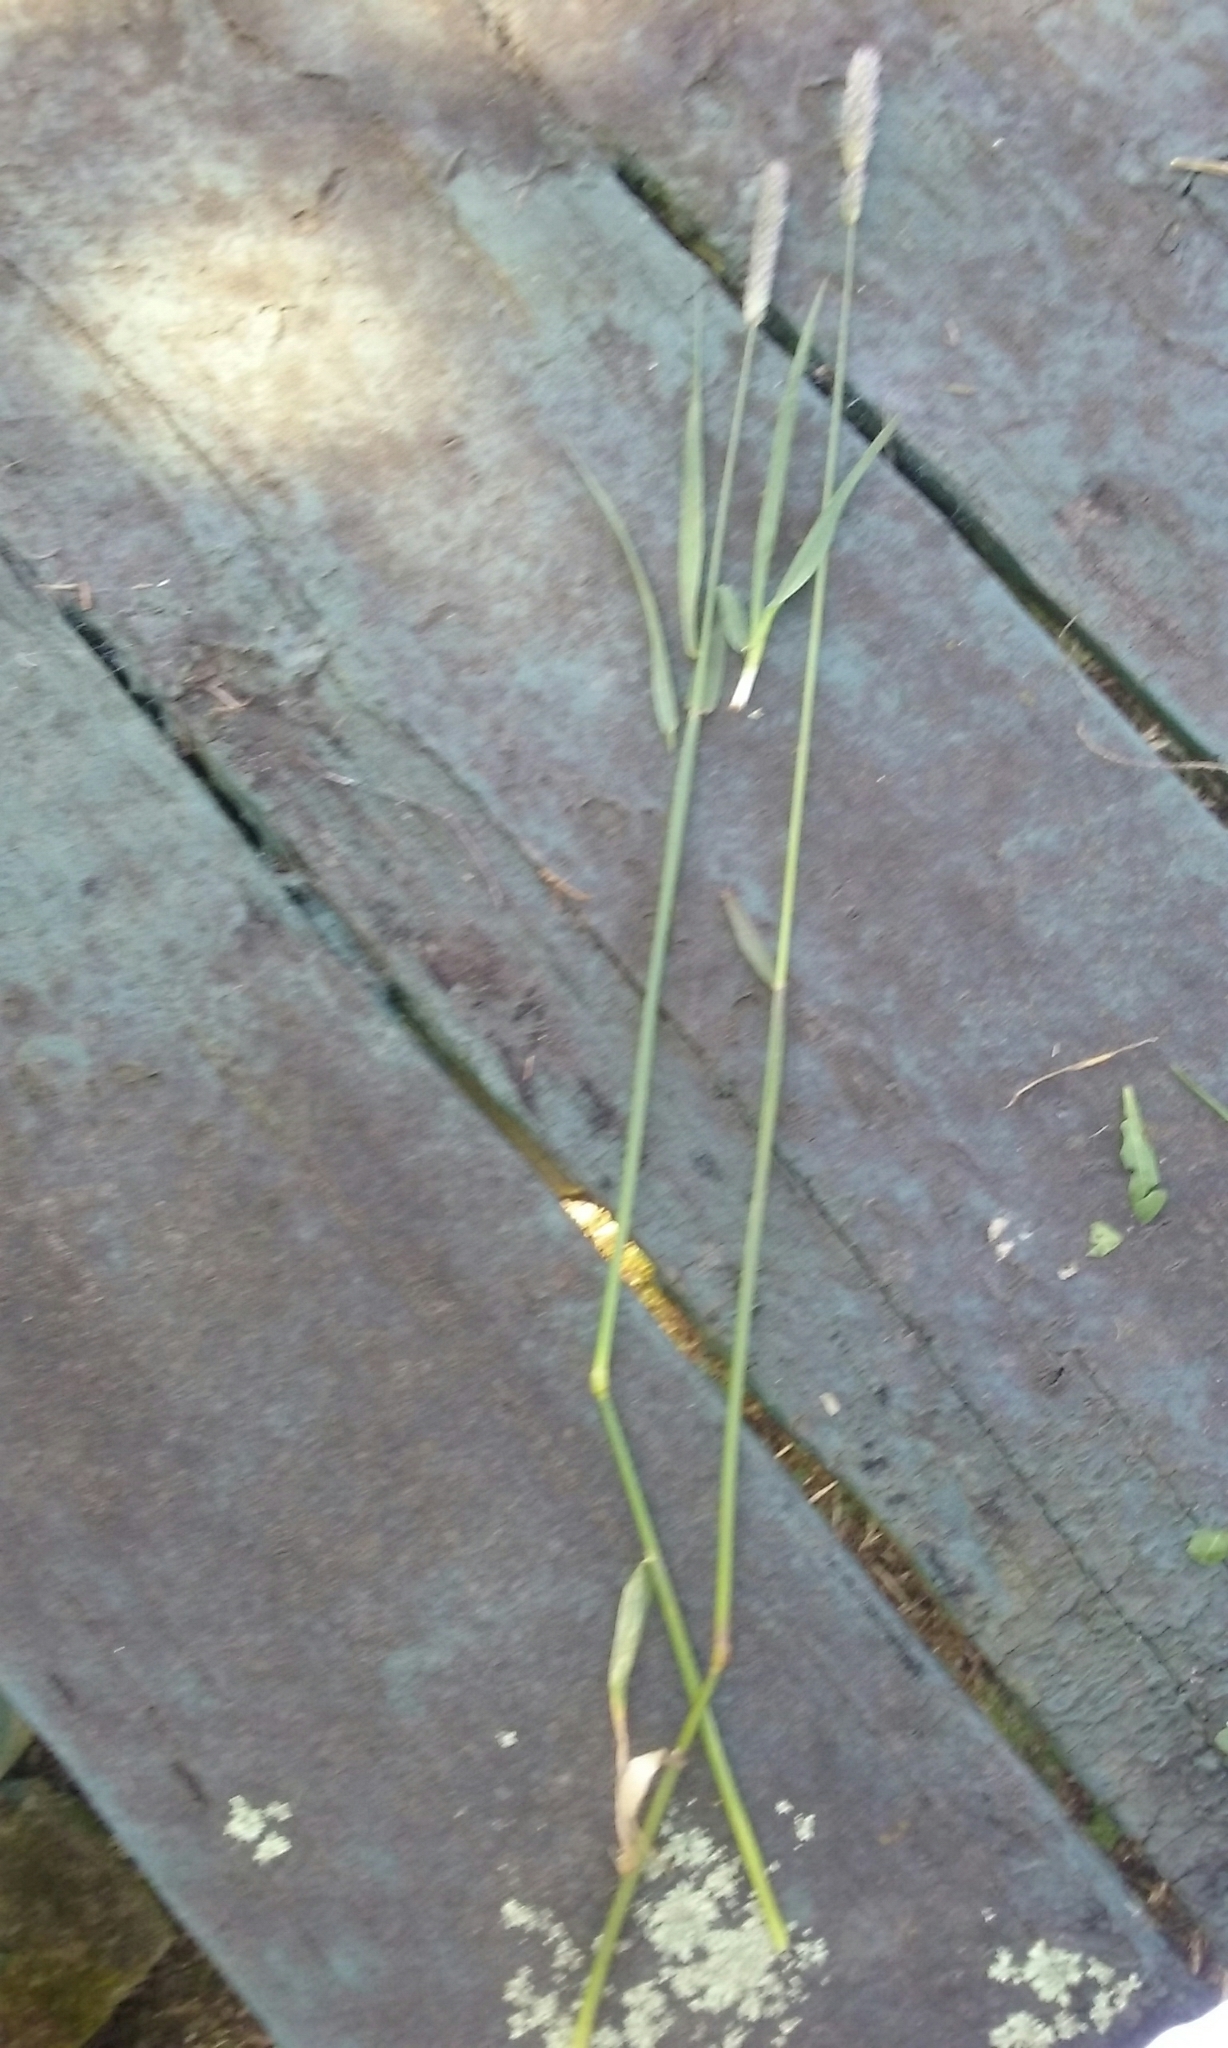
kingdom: Plantae
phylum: Tracheophyta
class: Liliopsida
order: Poales
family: Poaceae
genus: Alopecurus
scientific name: Alopecurus pratensis
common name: Meadow foxtail
